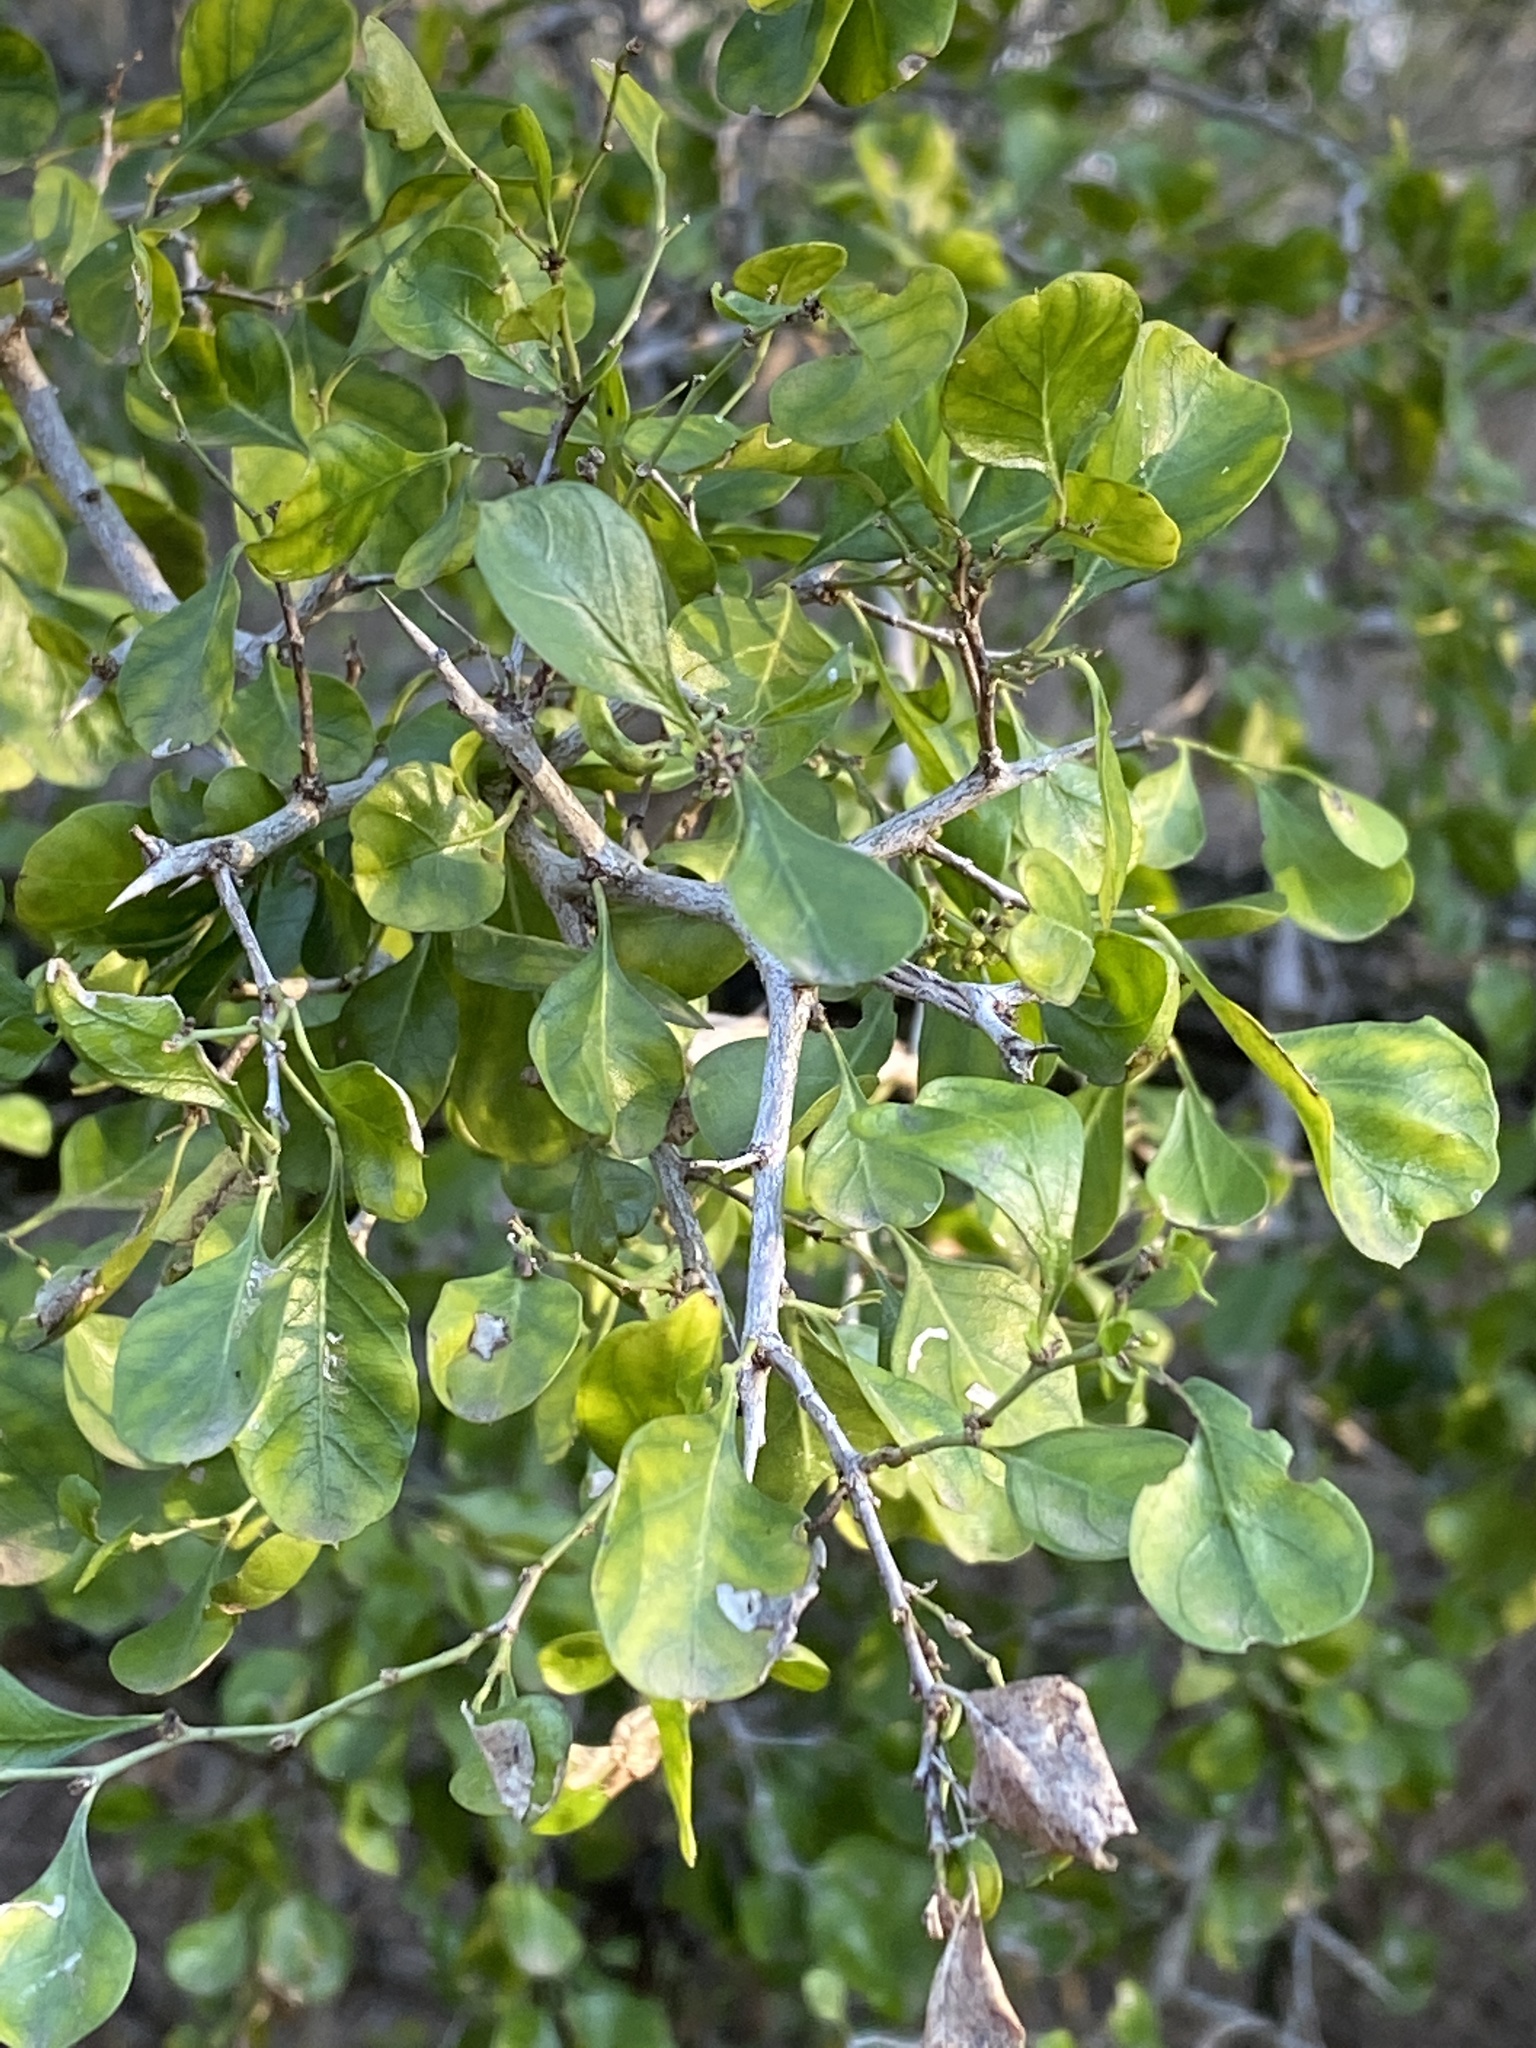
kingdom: Plantae
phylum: Tracheophyta
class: Magnoliopsida
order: Rosales
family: Rhamnaceae
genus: Condalia
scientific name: Condalia hookeri
